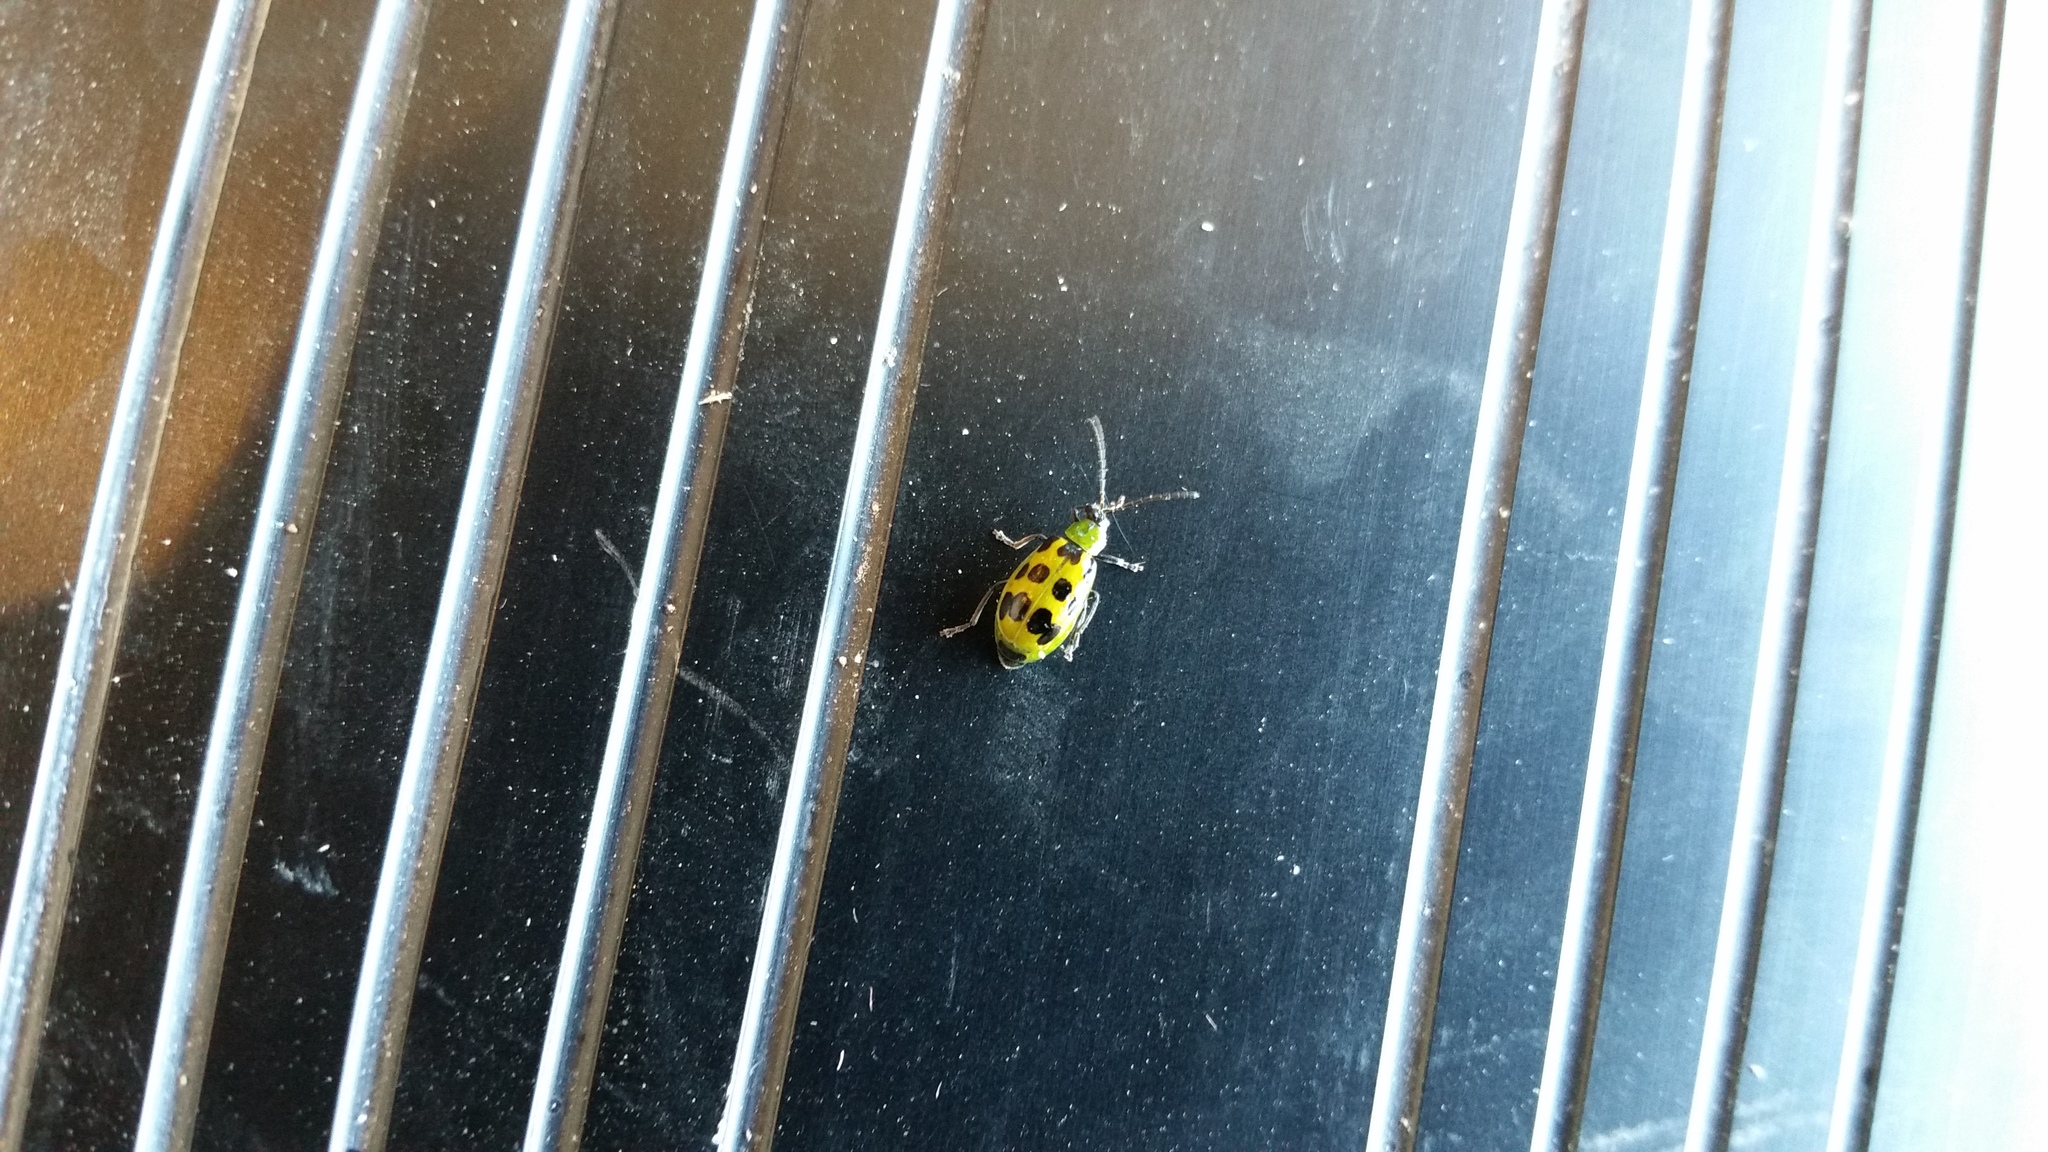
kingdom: Animalia
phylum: Arthropoda
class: Insecta
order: Coleoptera
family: Chrysomelidae
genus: Diabrotica
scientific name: Diabrotica undecimpunctata
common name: Spotted cucumber beetle
